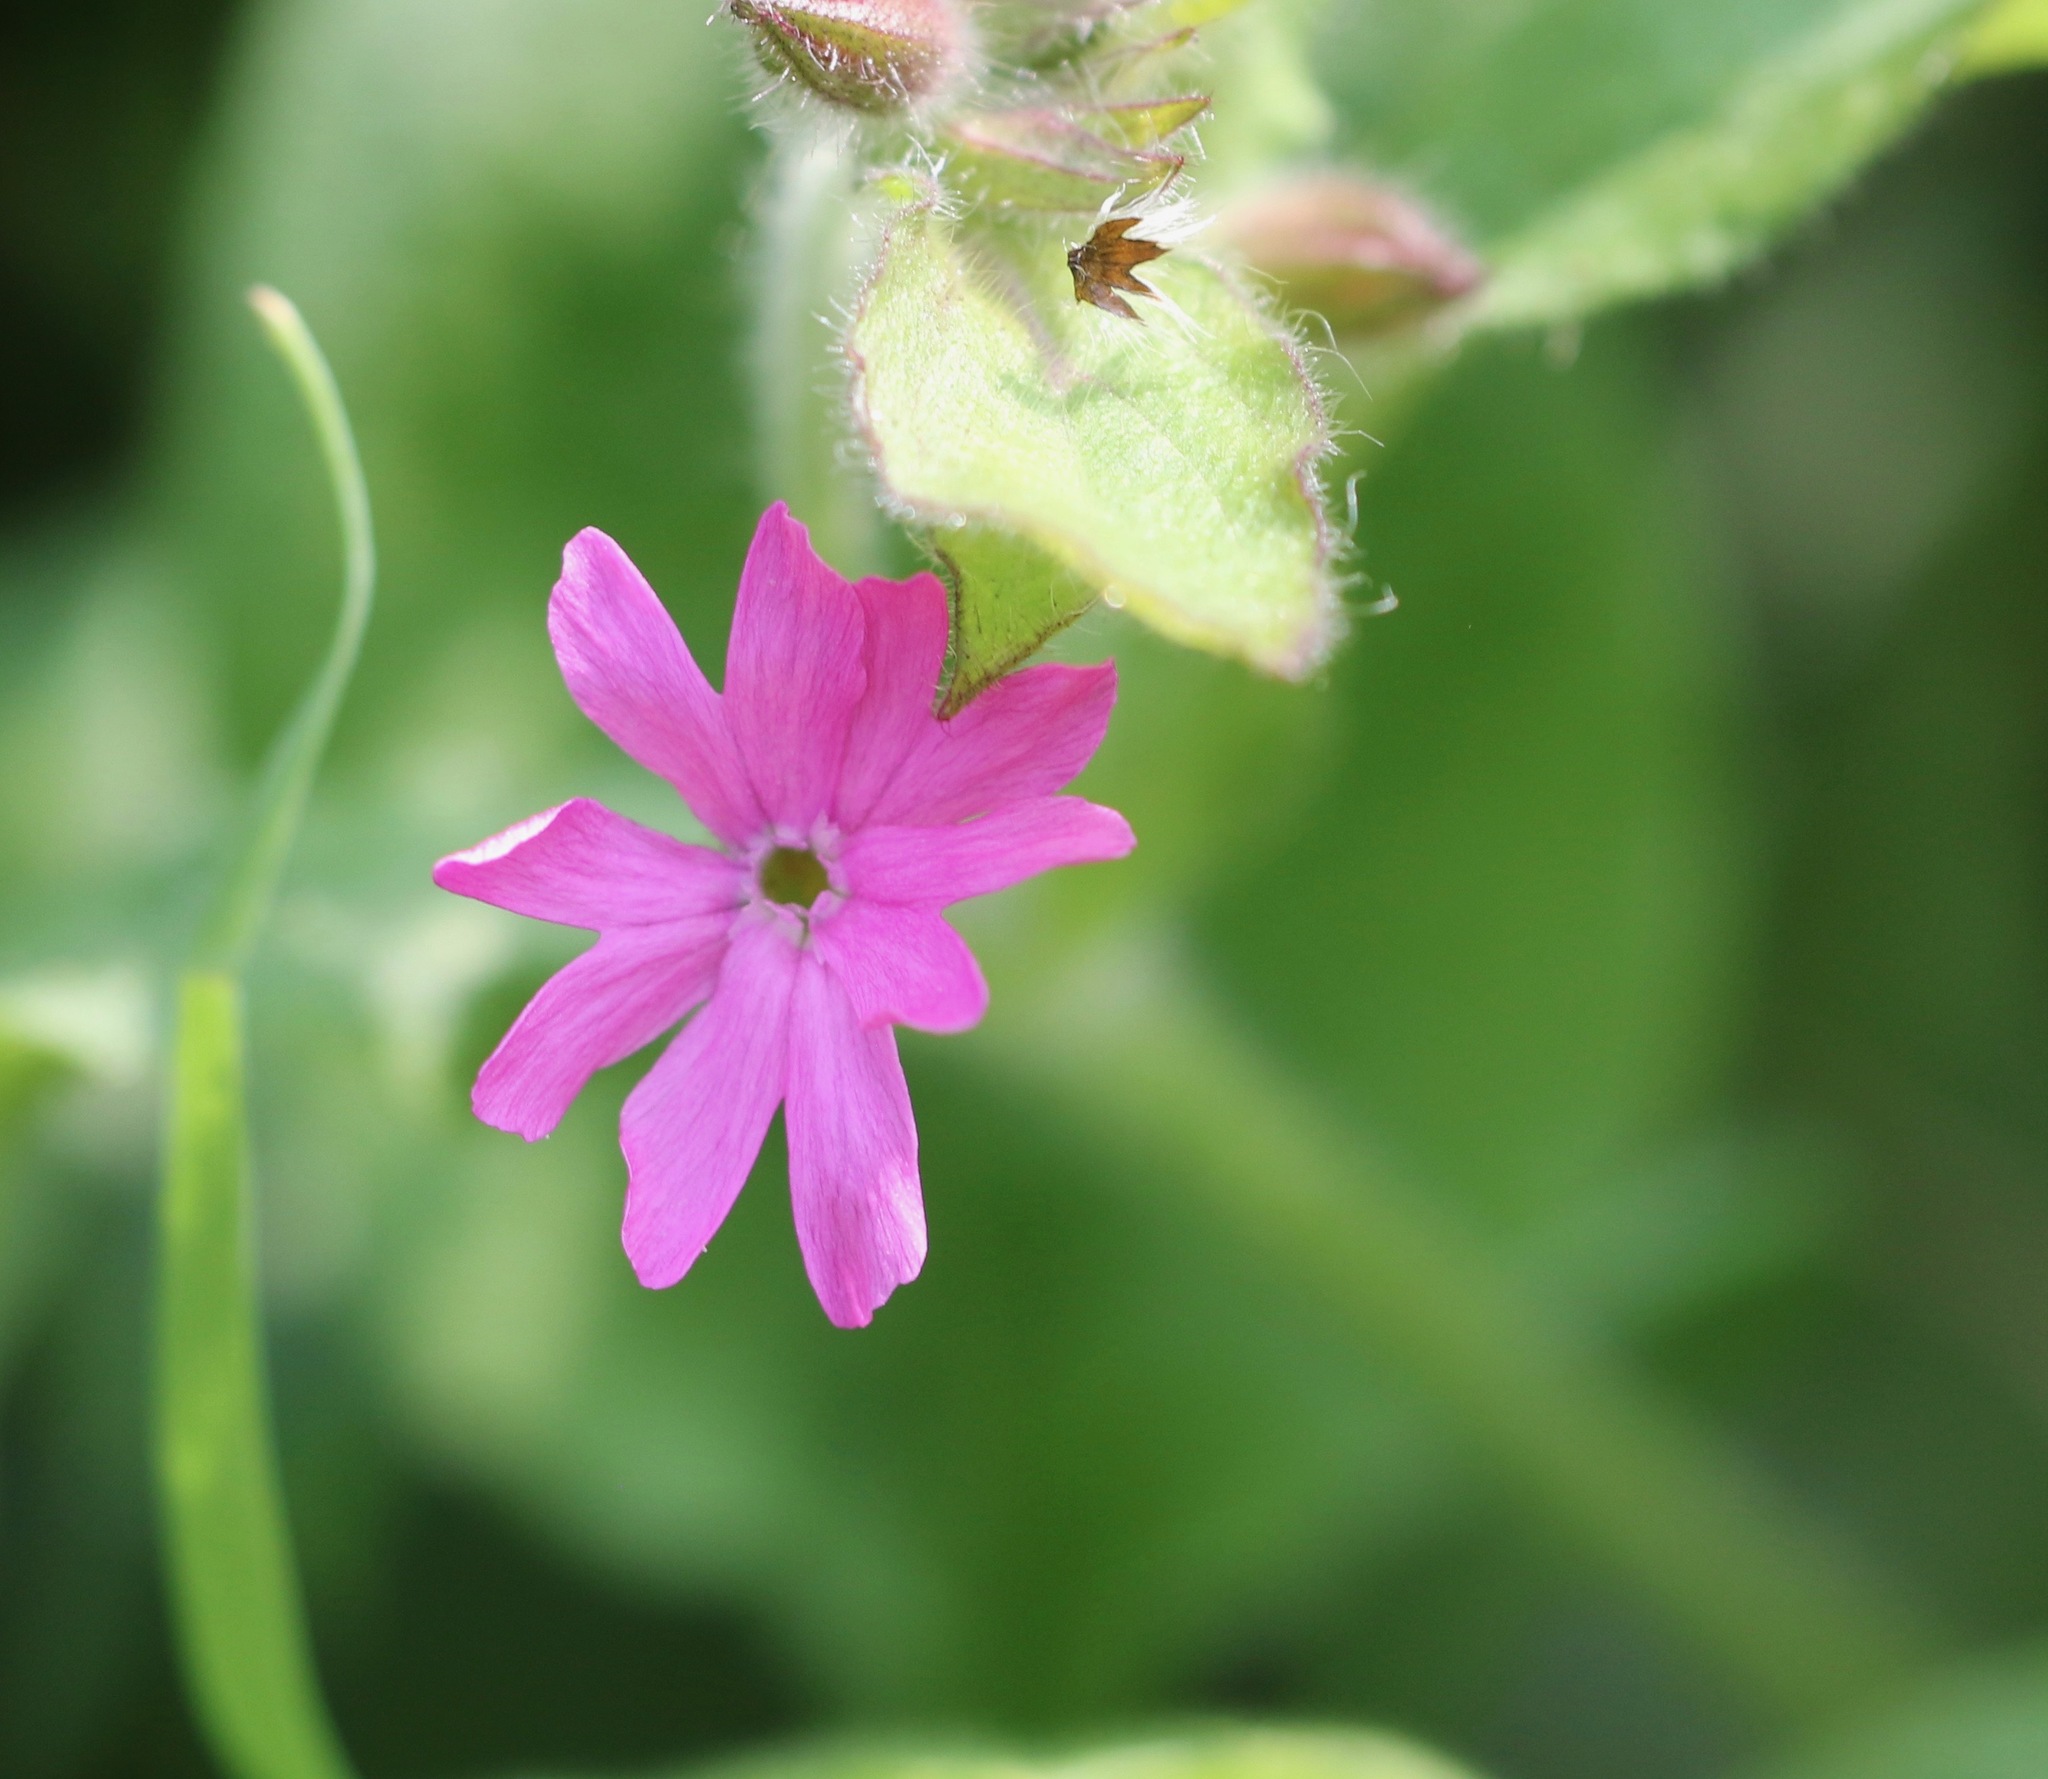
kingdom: Plantae
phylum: Tracheophyta
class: Magnoliopsida
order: Caryophyllales
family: Caryophyllaceae
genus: Silene
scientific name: Silene dioica
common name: Red campion
